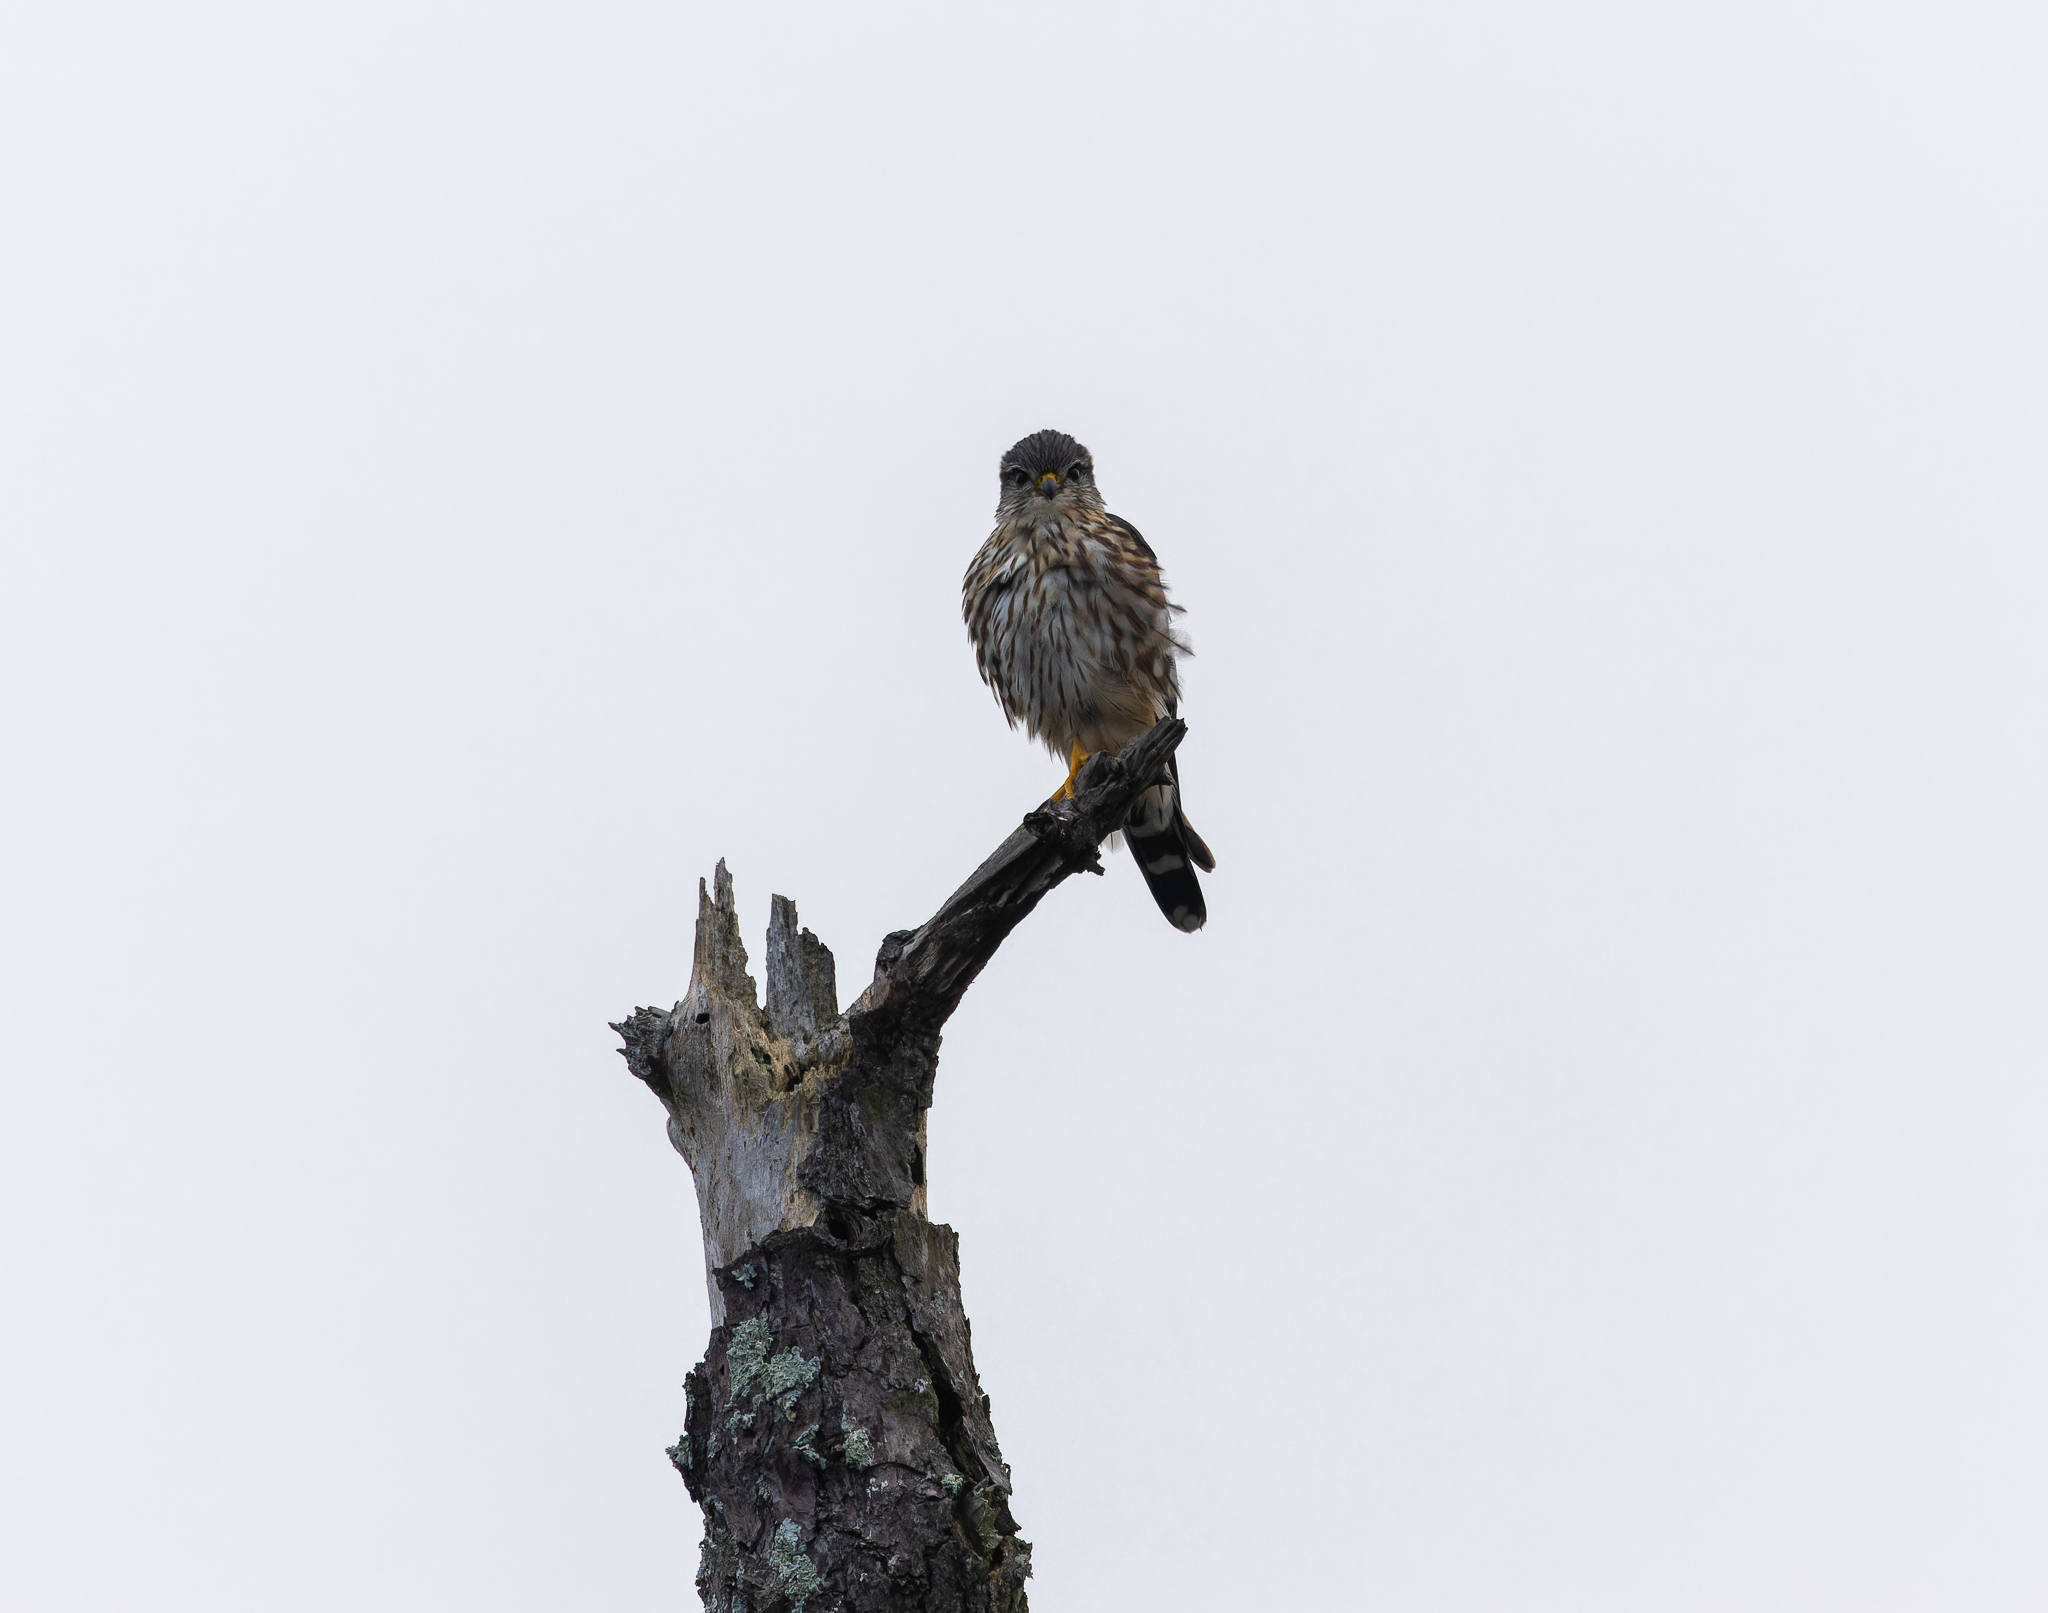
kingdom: Animalia
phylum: Chordata
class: Aves
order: Falconiformes
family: Falconidae
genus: Falco
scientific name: Falco columbarius
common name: Merlin
